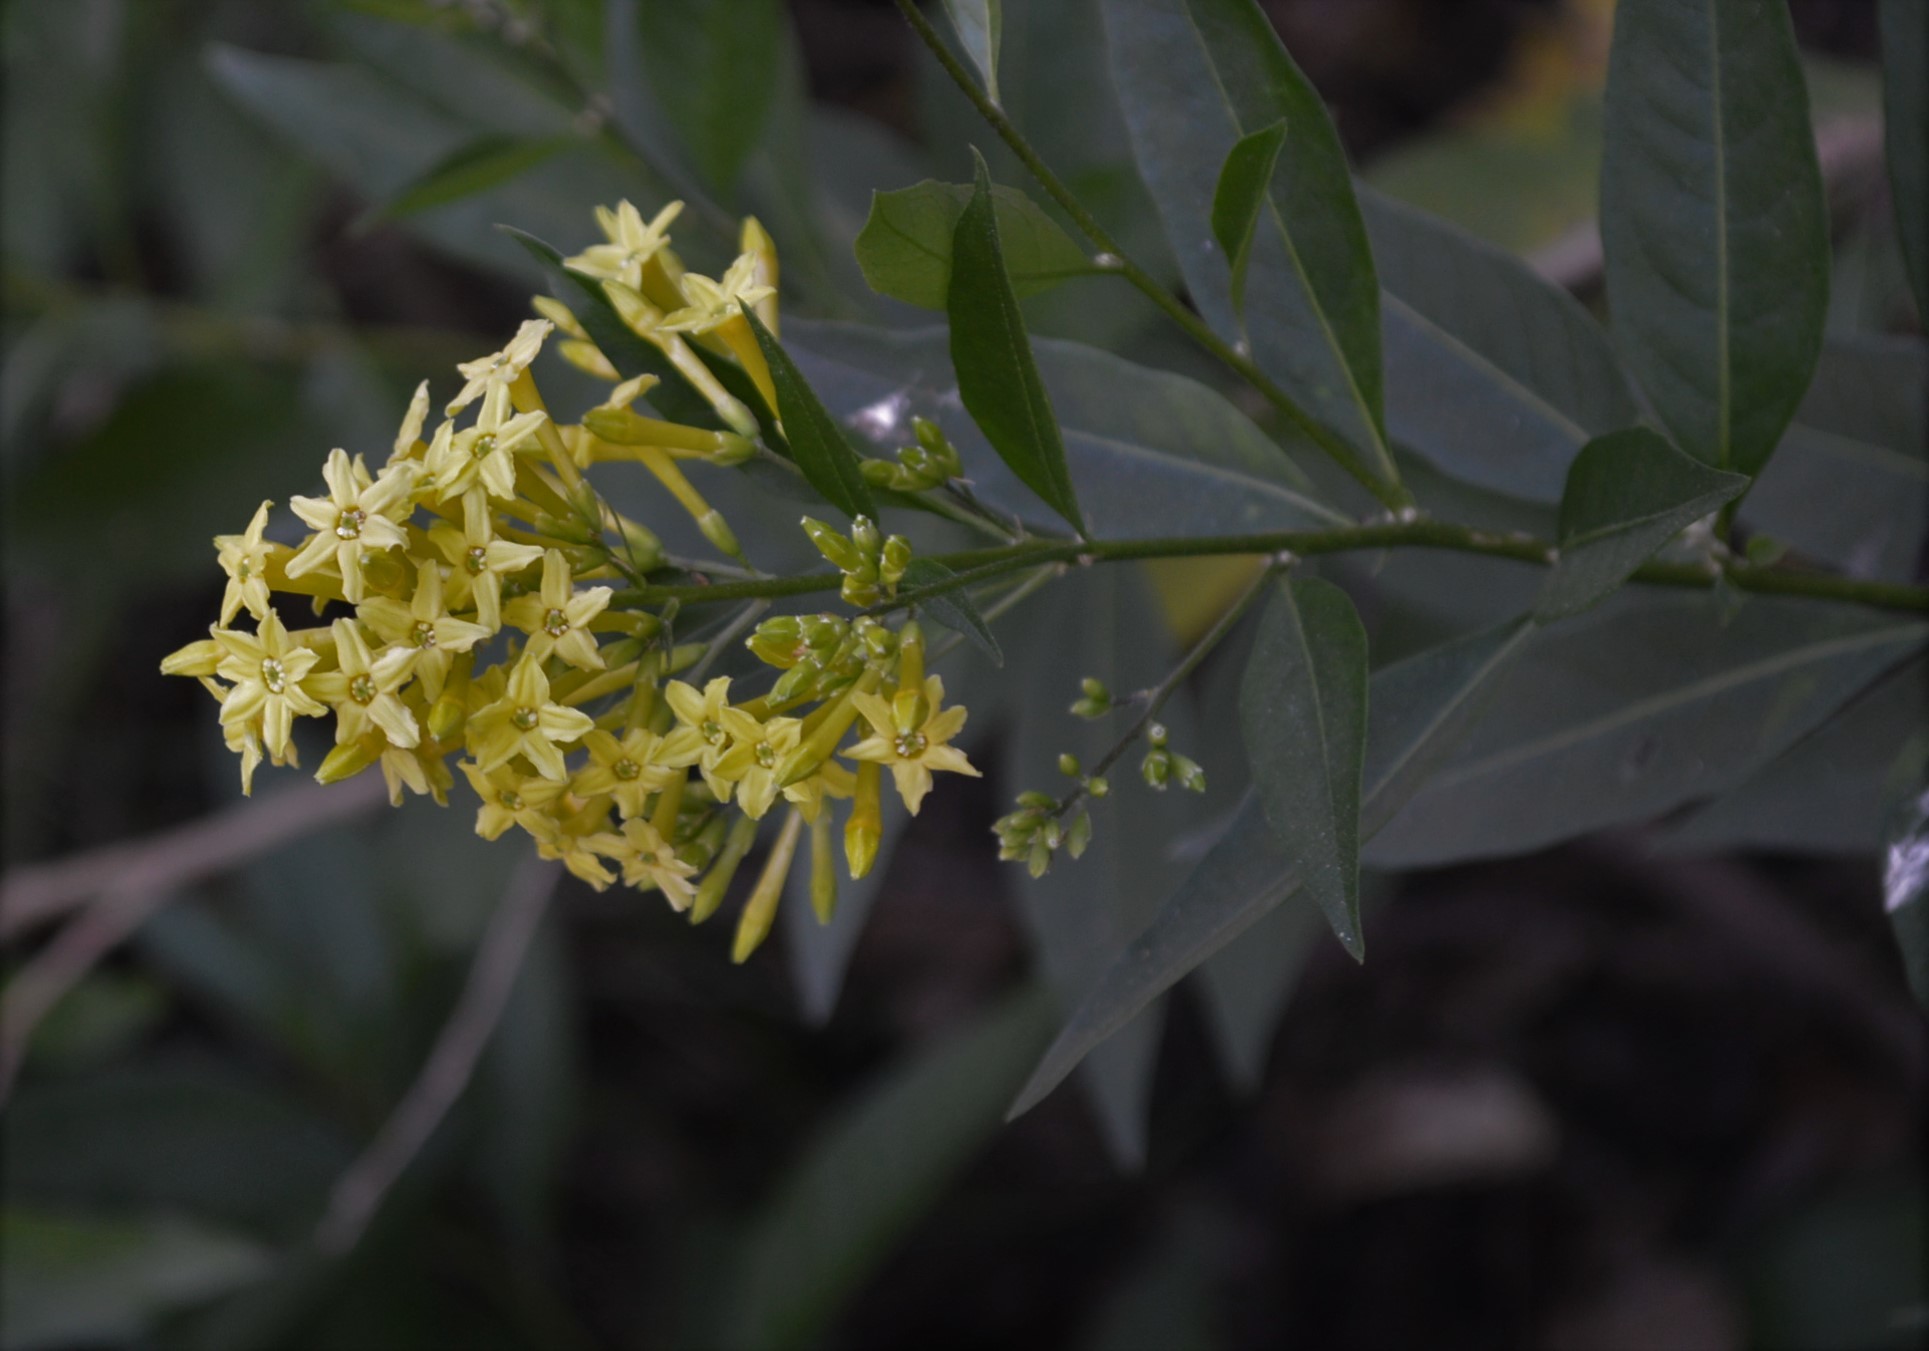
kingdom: Plantae
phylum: Tracheophyta
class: Magnoliopsida
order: Solanales
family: Solanaceae
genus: Cestrum
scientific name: Cestrum parqui
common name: Chilean cestrum
